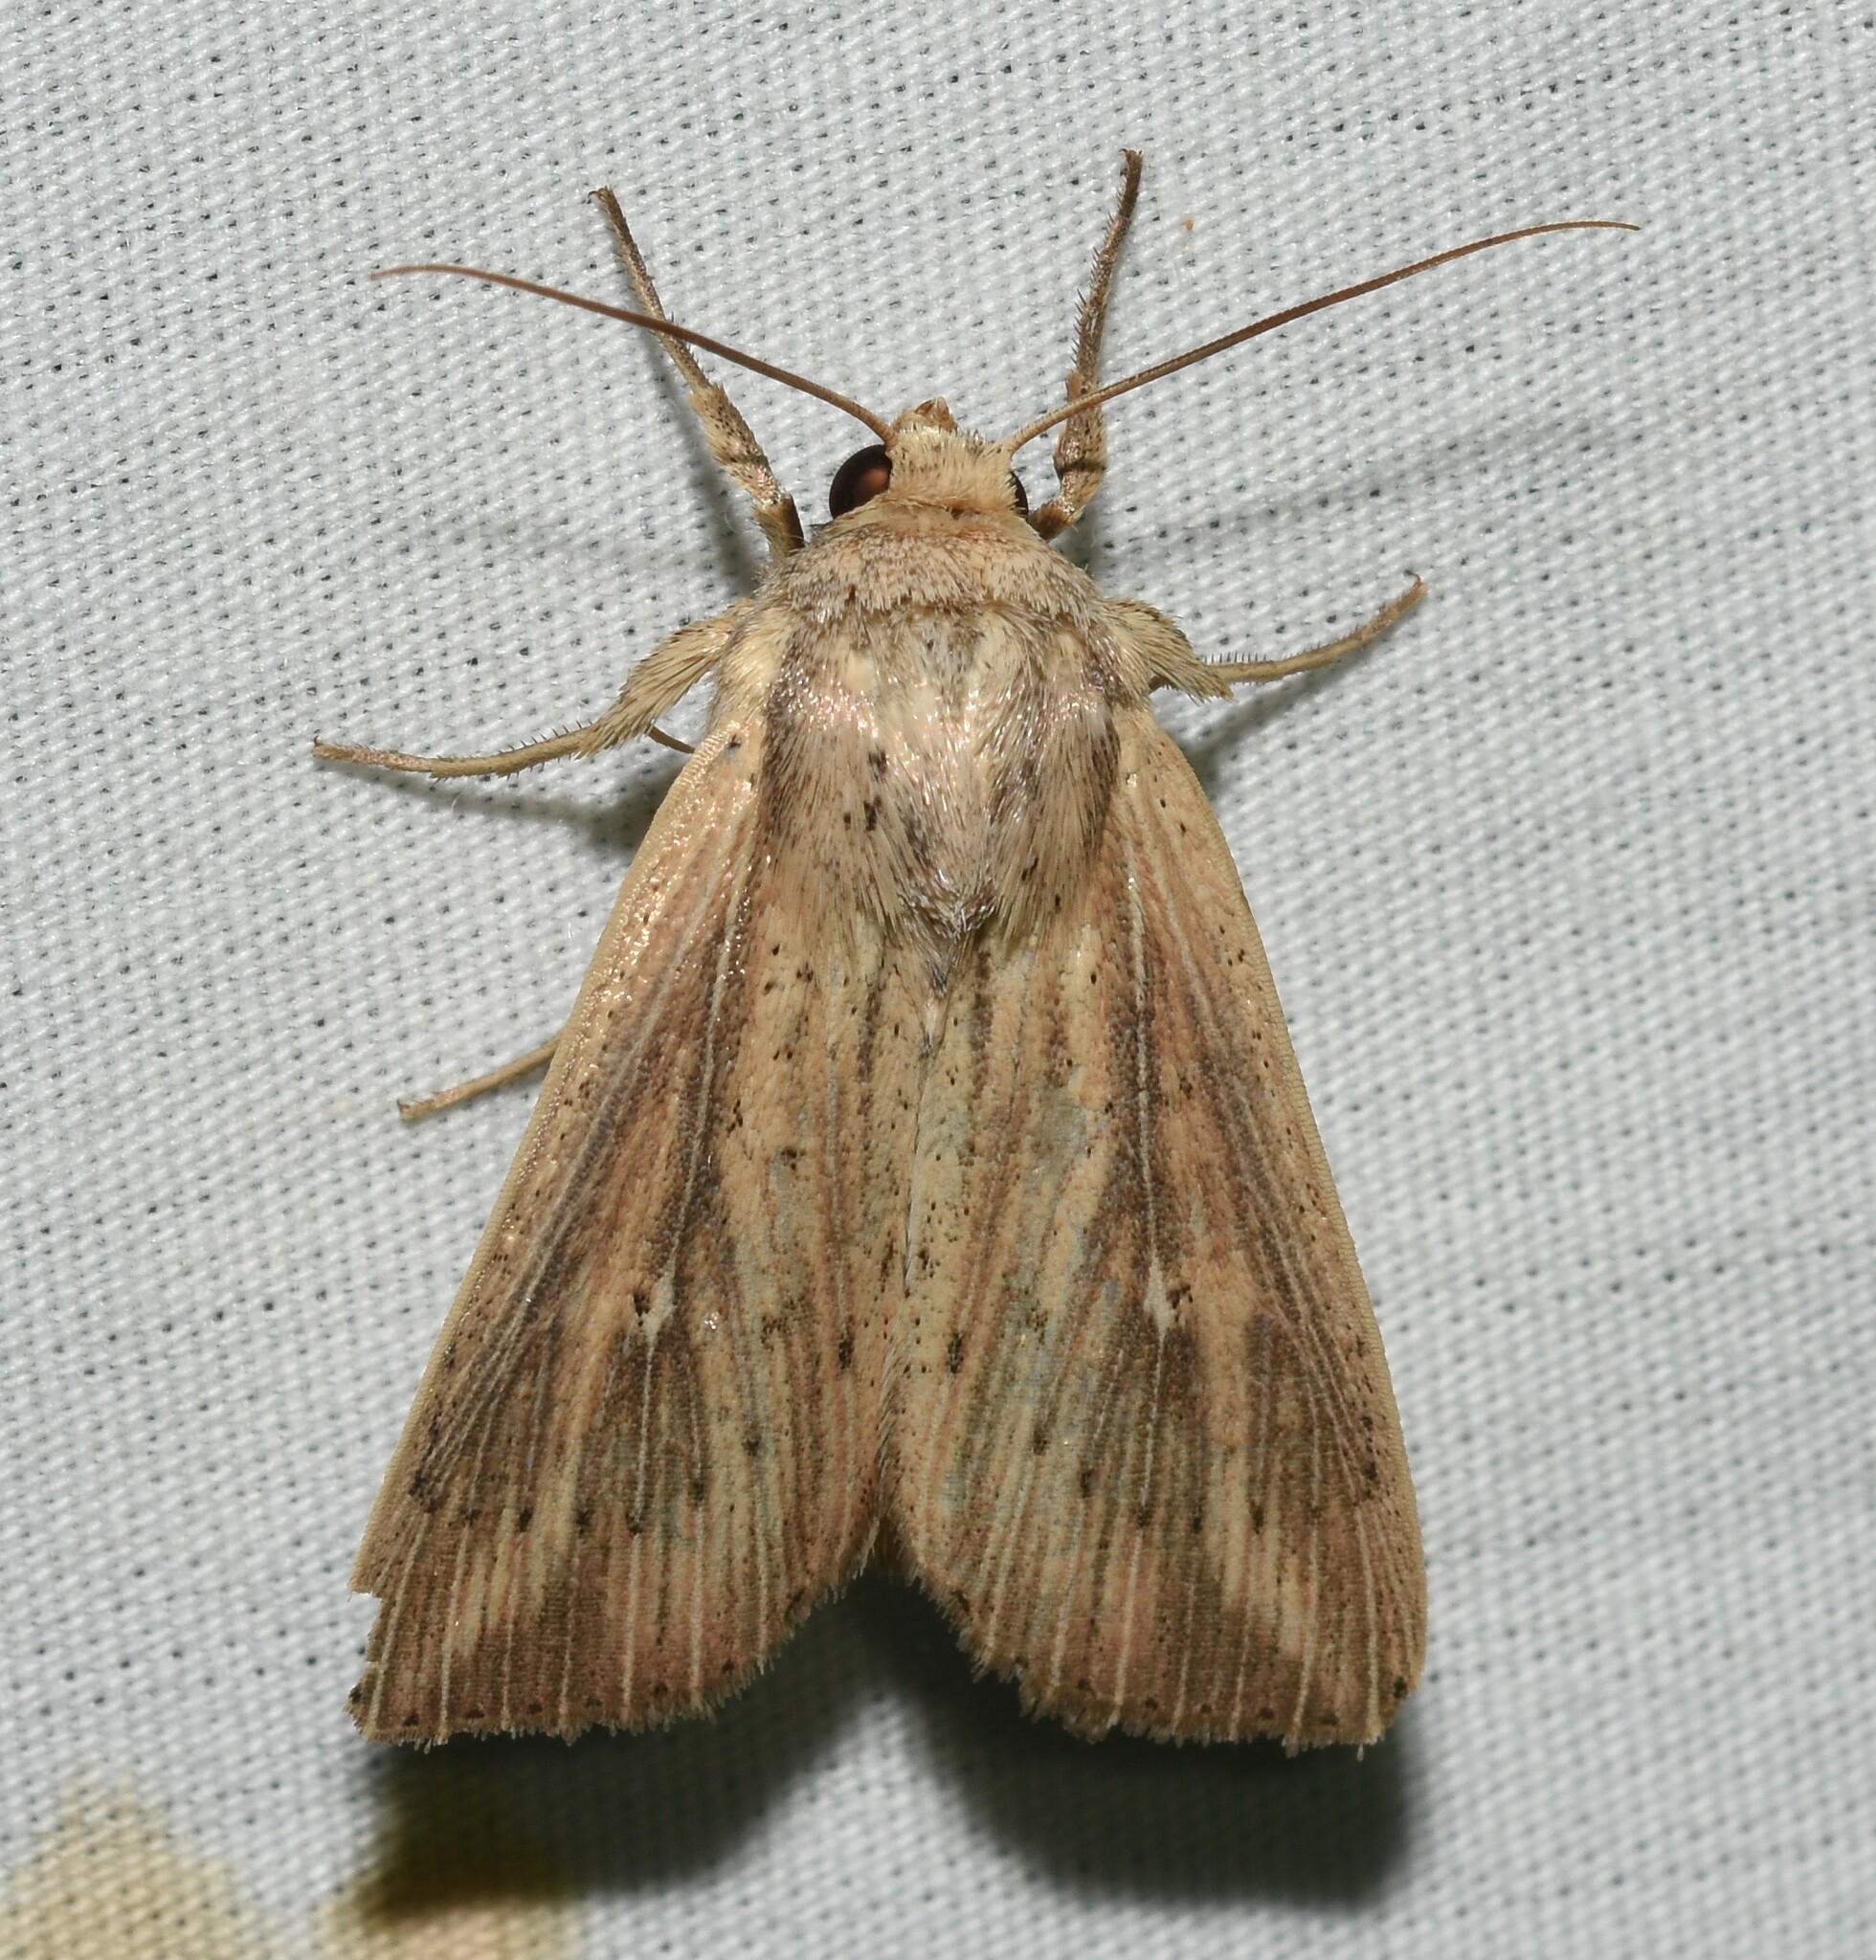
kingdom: Animalia
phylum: Arthropoda
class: Insecta
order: Lepidoptera
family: Noctuidae
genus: Leucania
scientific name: Leucania linda
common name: Linda's wainscot
